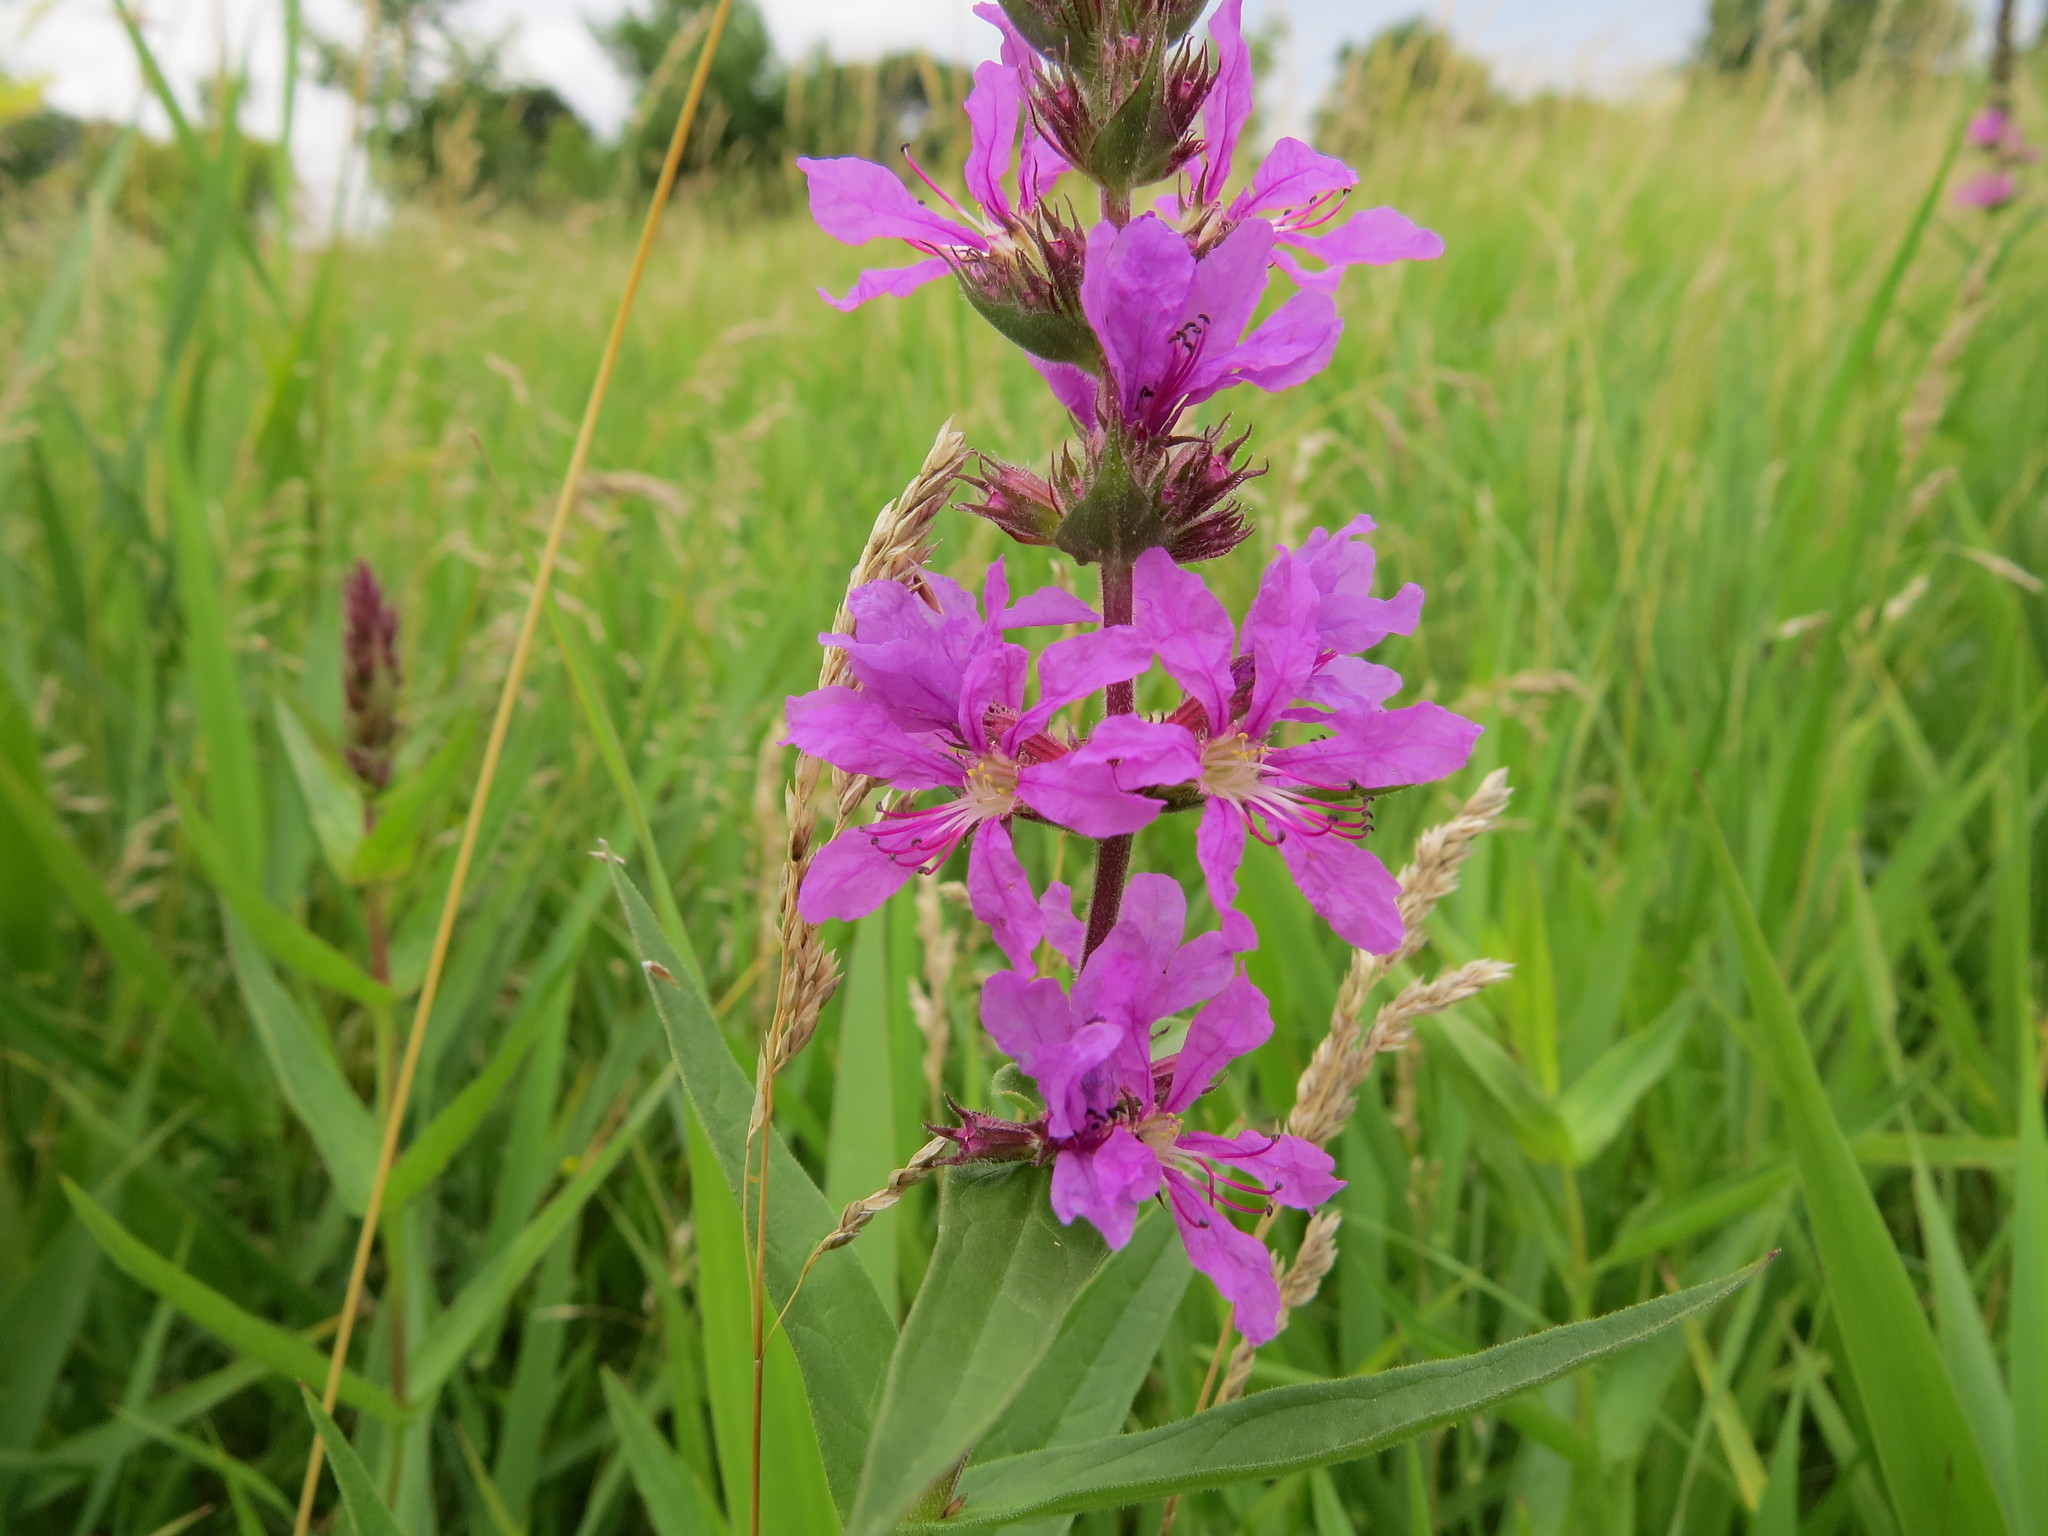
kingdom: Plantae
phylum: Tracheophyta
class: Magnoliopsida
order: Myrtales
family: Lythraceae
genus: Lythrum
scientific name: Lythrum salicaria
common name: Purple loosestrife
